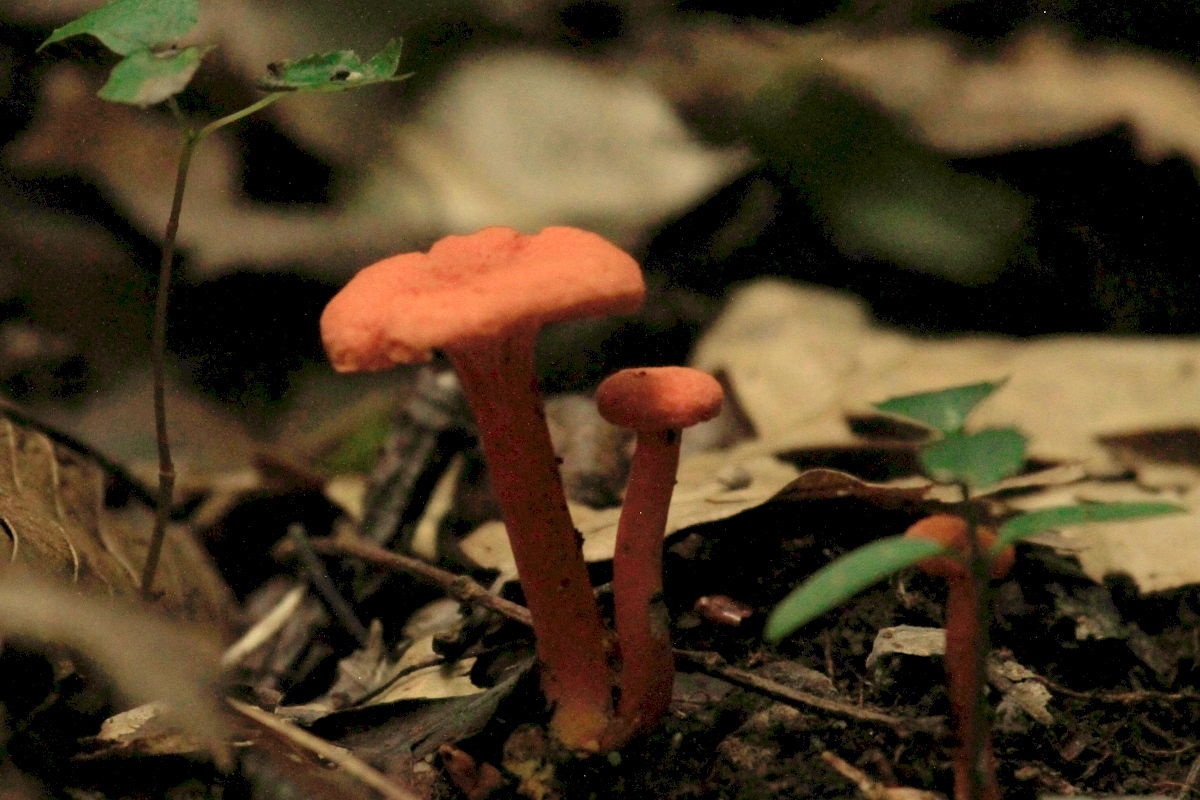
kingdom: Fungi
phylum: Basidiomycota
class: Agaricomycetes
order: Cantharellales
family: Hydnaceae
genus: Cantharellus
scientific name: Cantharellus cinnabarinus
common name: Cinnabar chanterelle
